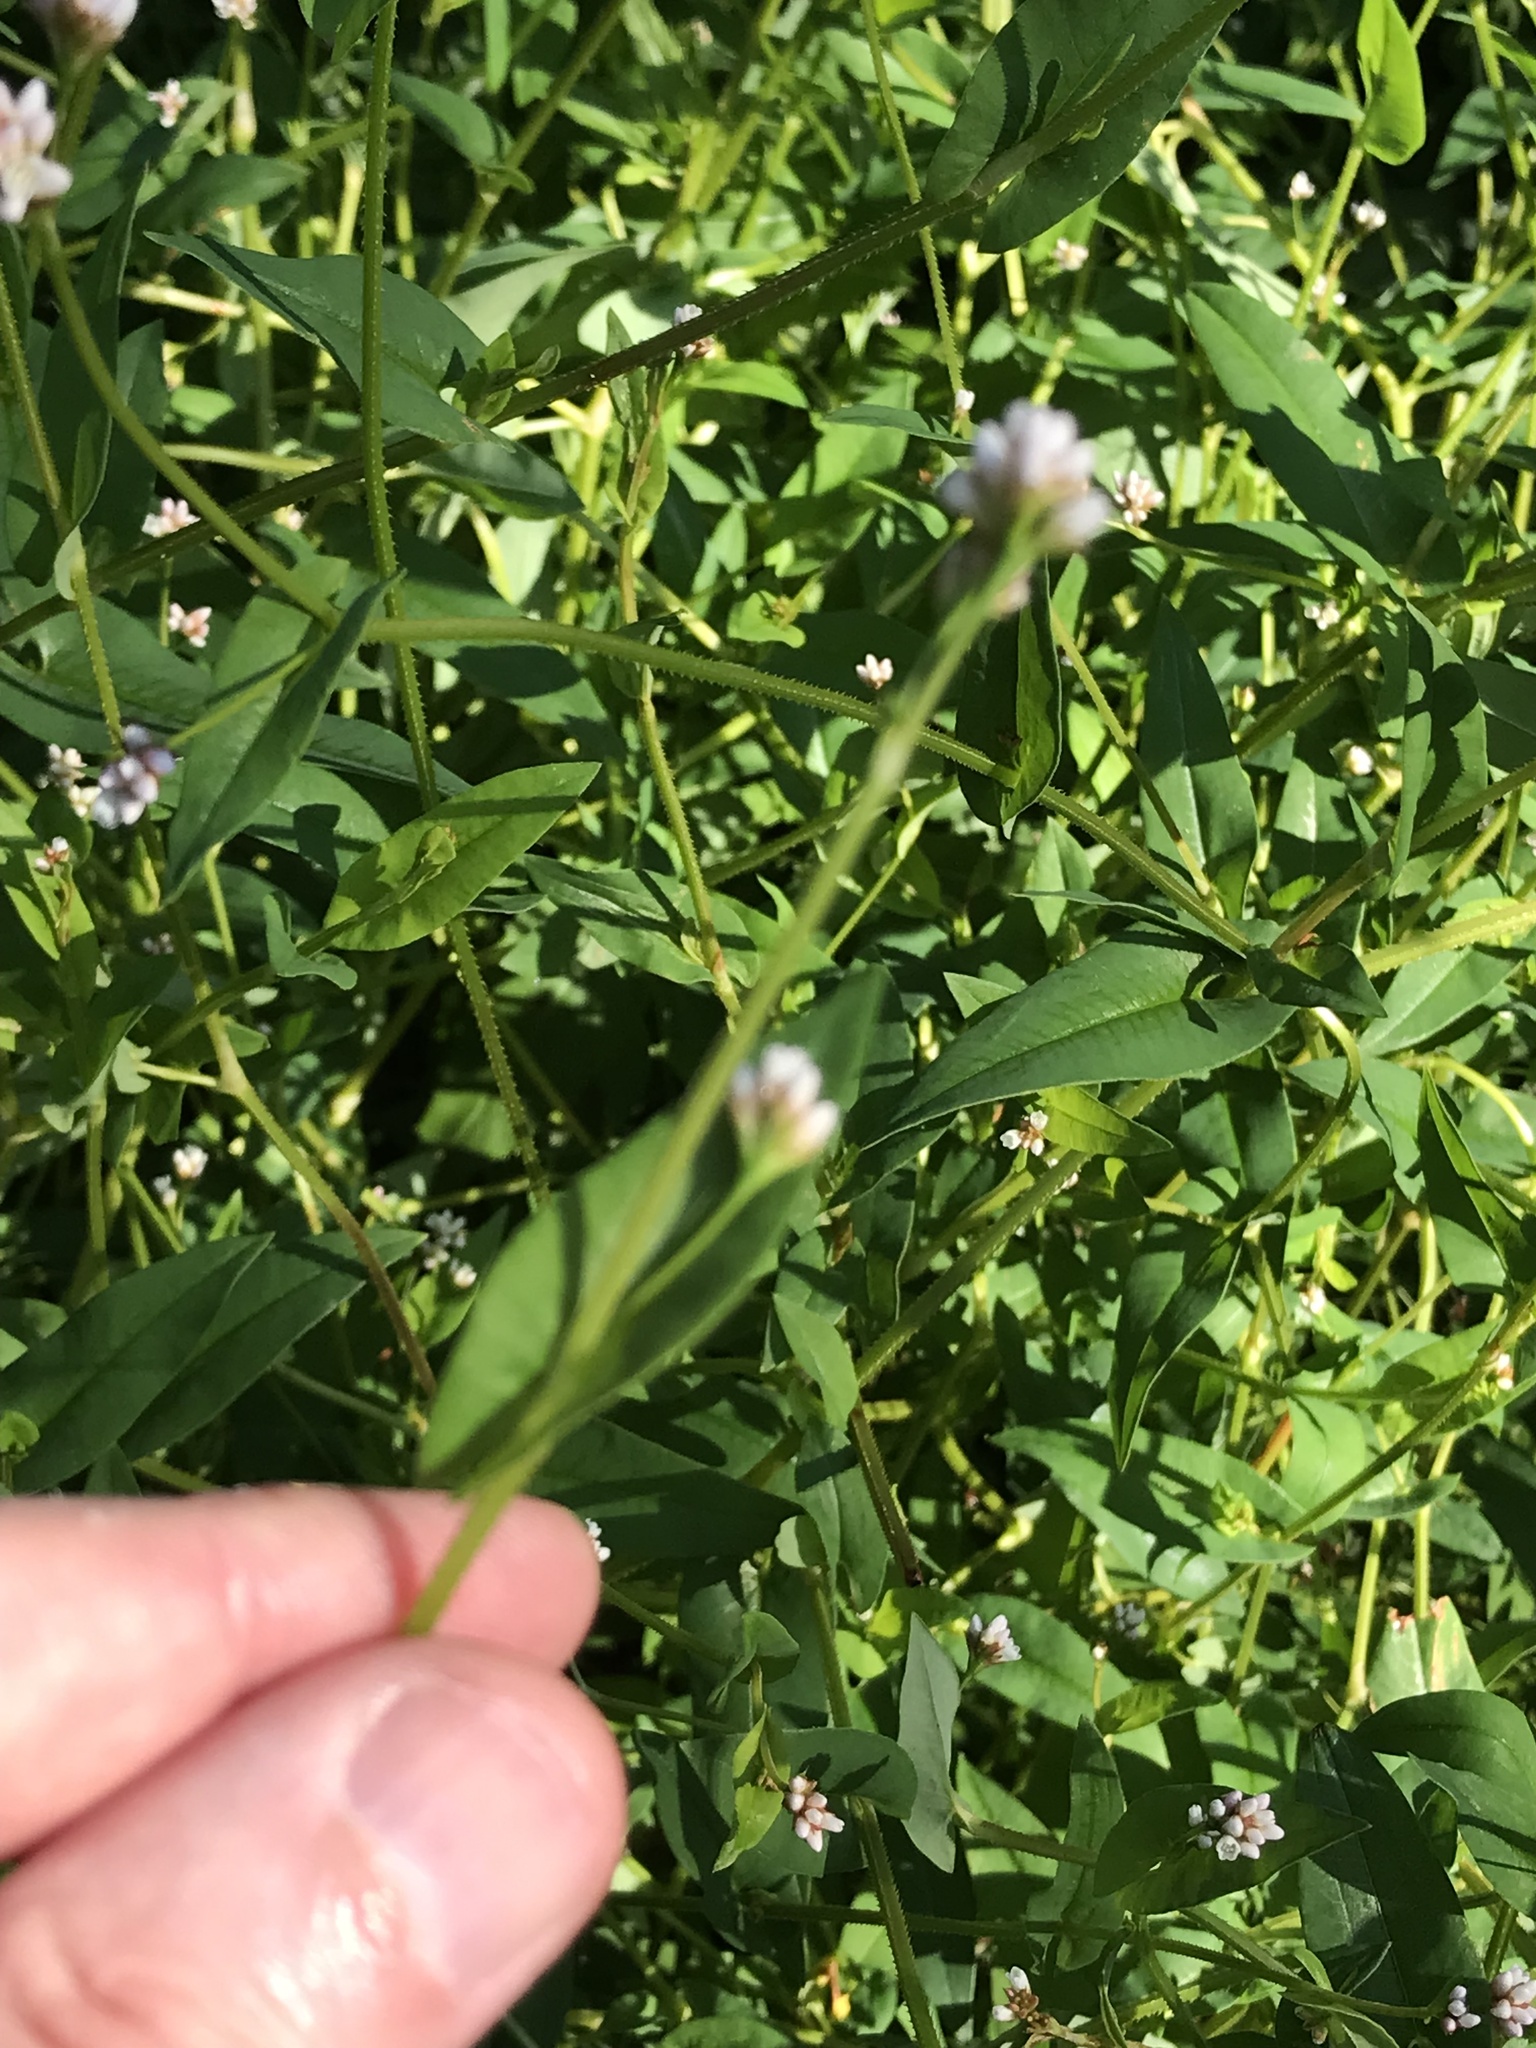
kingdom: Plantae
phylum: Tracheophyta
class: Magnoliopsida
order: Caryophyllales
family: Polygonaceae
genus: Persicaria
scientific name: Persicaria sagittata
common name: American tearthumb
